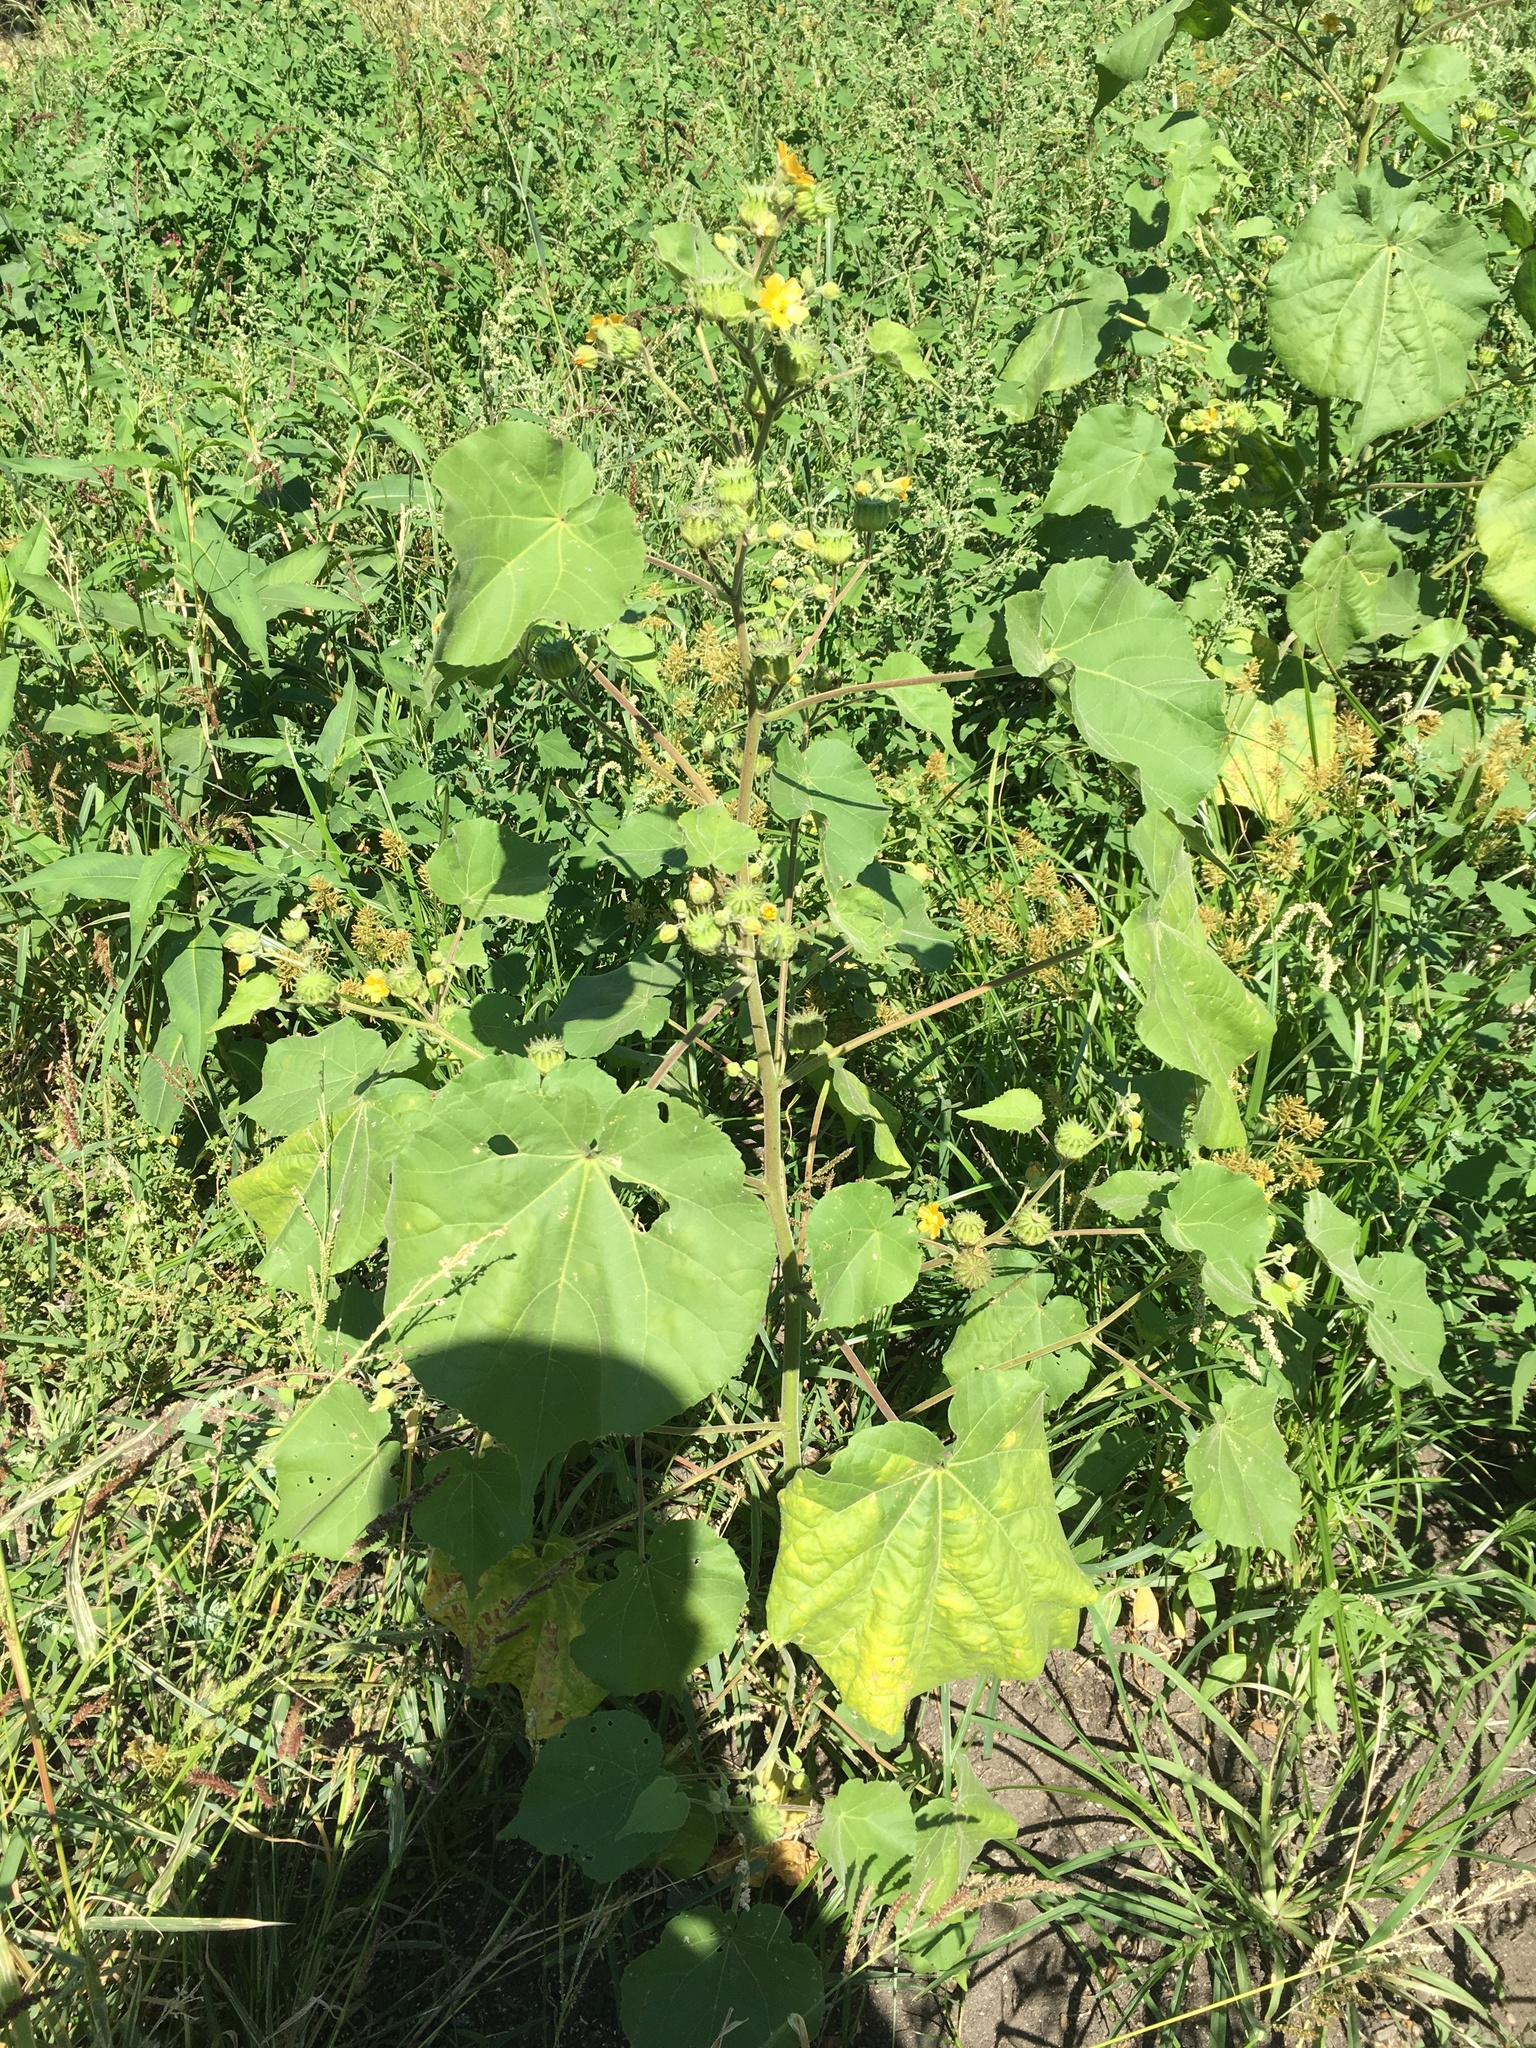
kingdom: Plantae
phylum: Tracheophyta
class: Magnoliopsida
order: Malvales
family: Malvaceae
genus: Abutilon
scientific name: Abutilon theophrasti
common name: Velvetleaf
